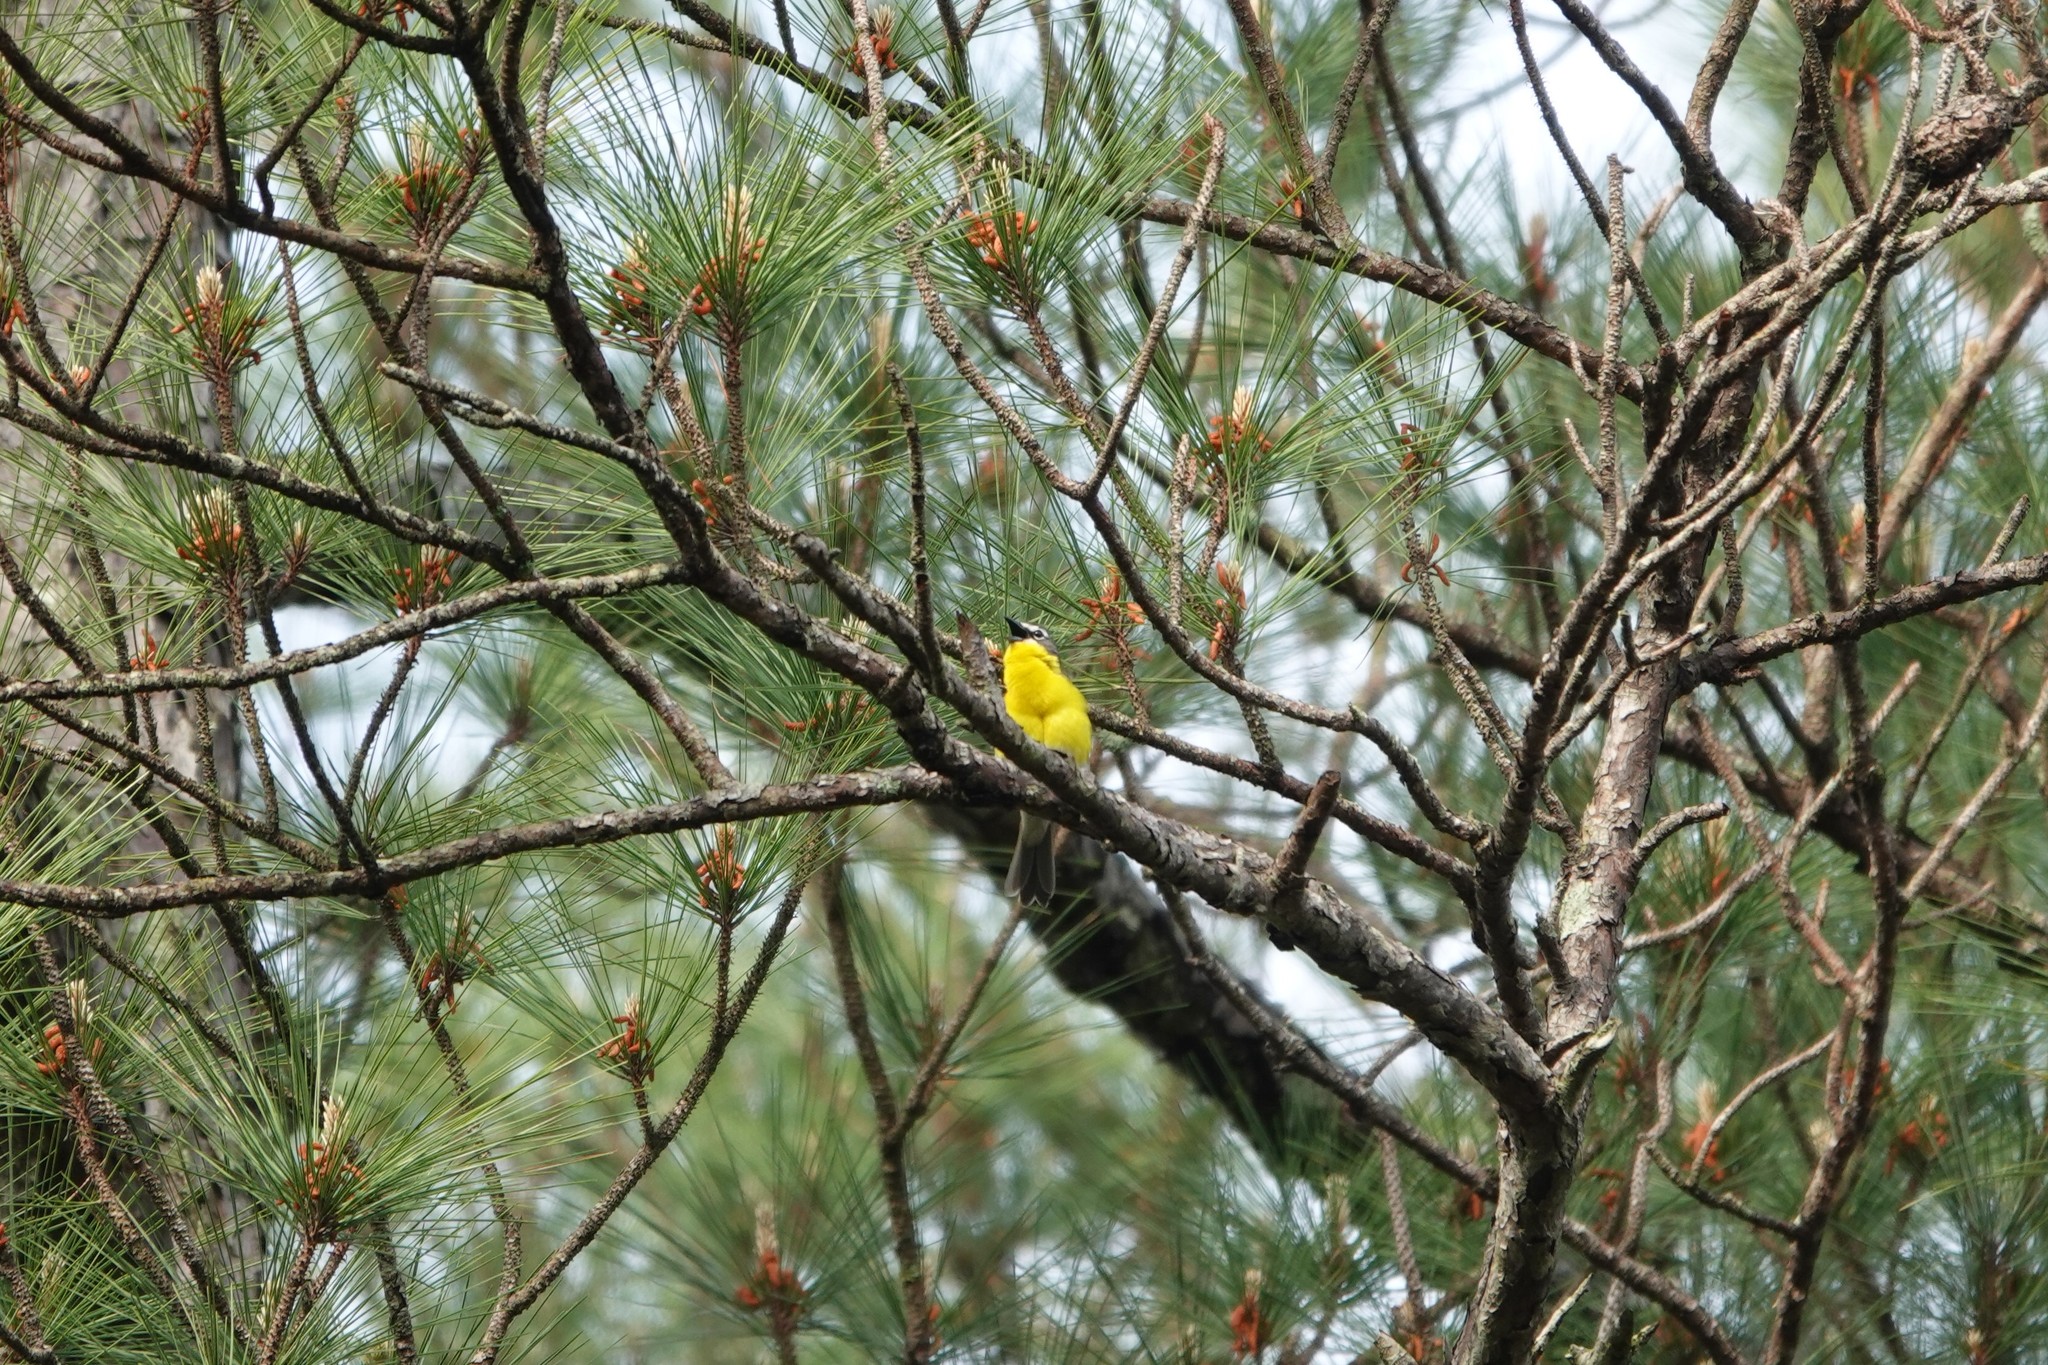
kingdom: Animalia
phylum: Chordata
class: Aves
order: Passeriformes
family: Parulidae
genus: Icteria
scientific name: Icteria virens
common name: Yellow-breasted chat
